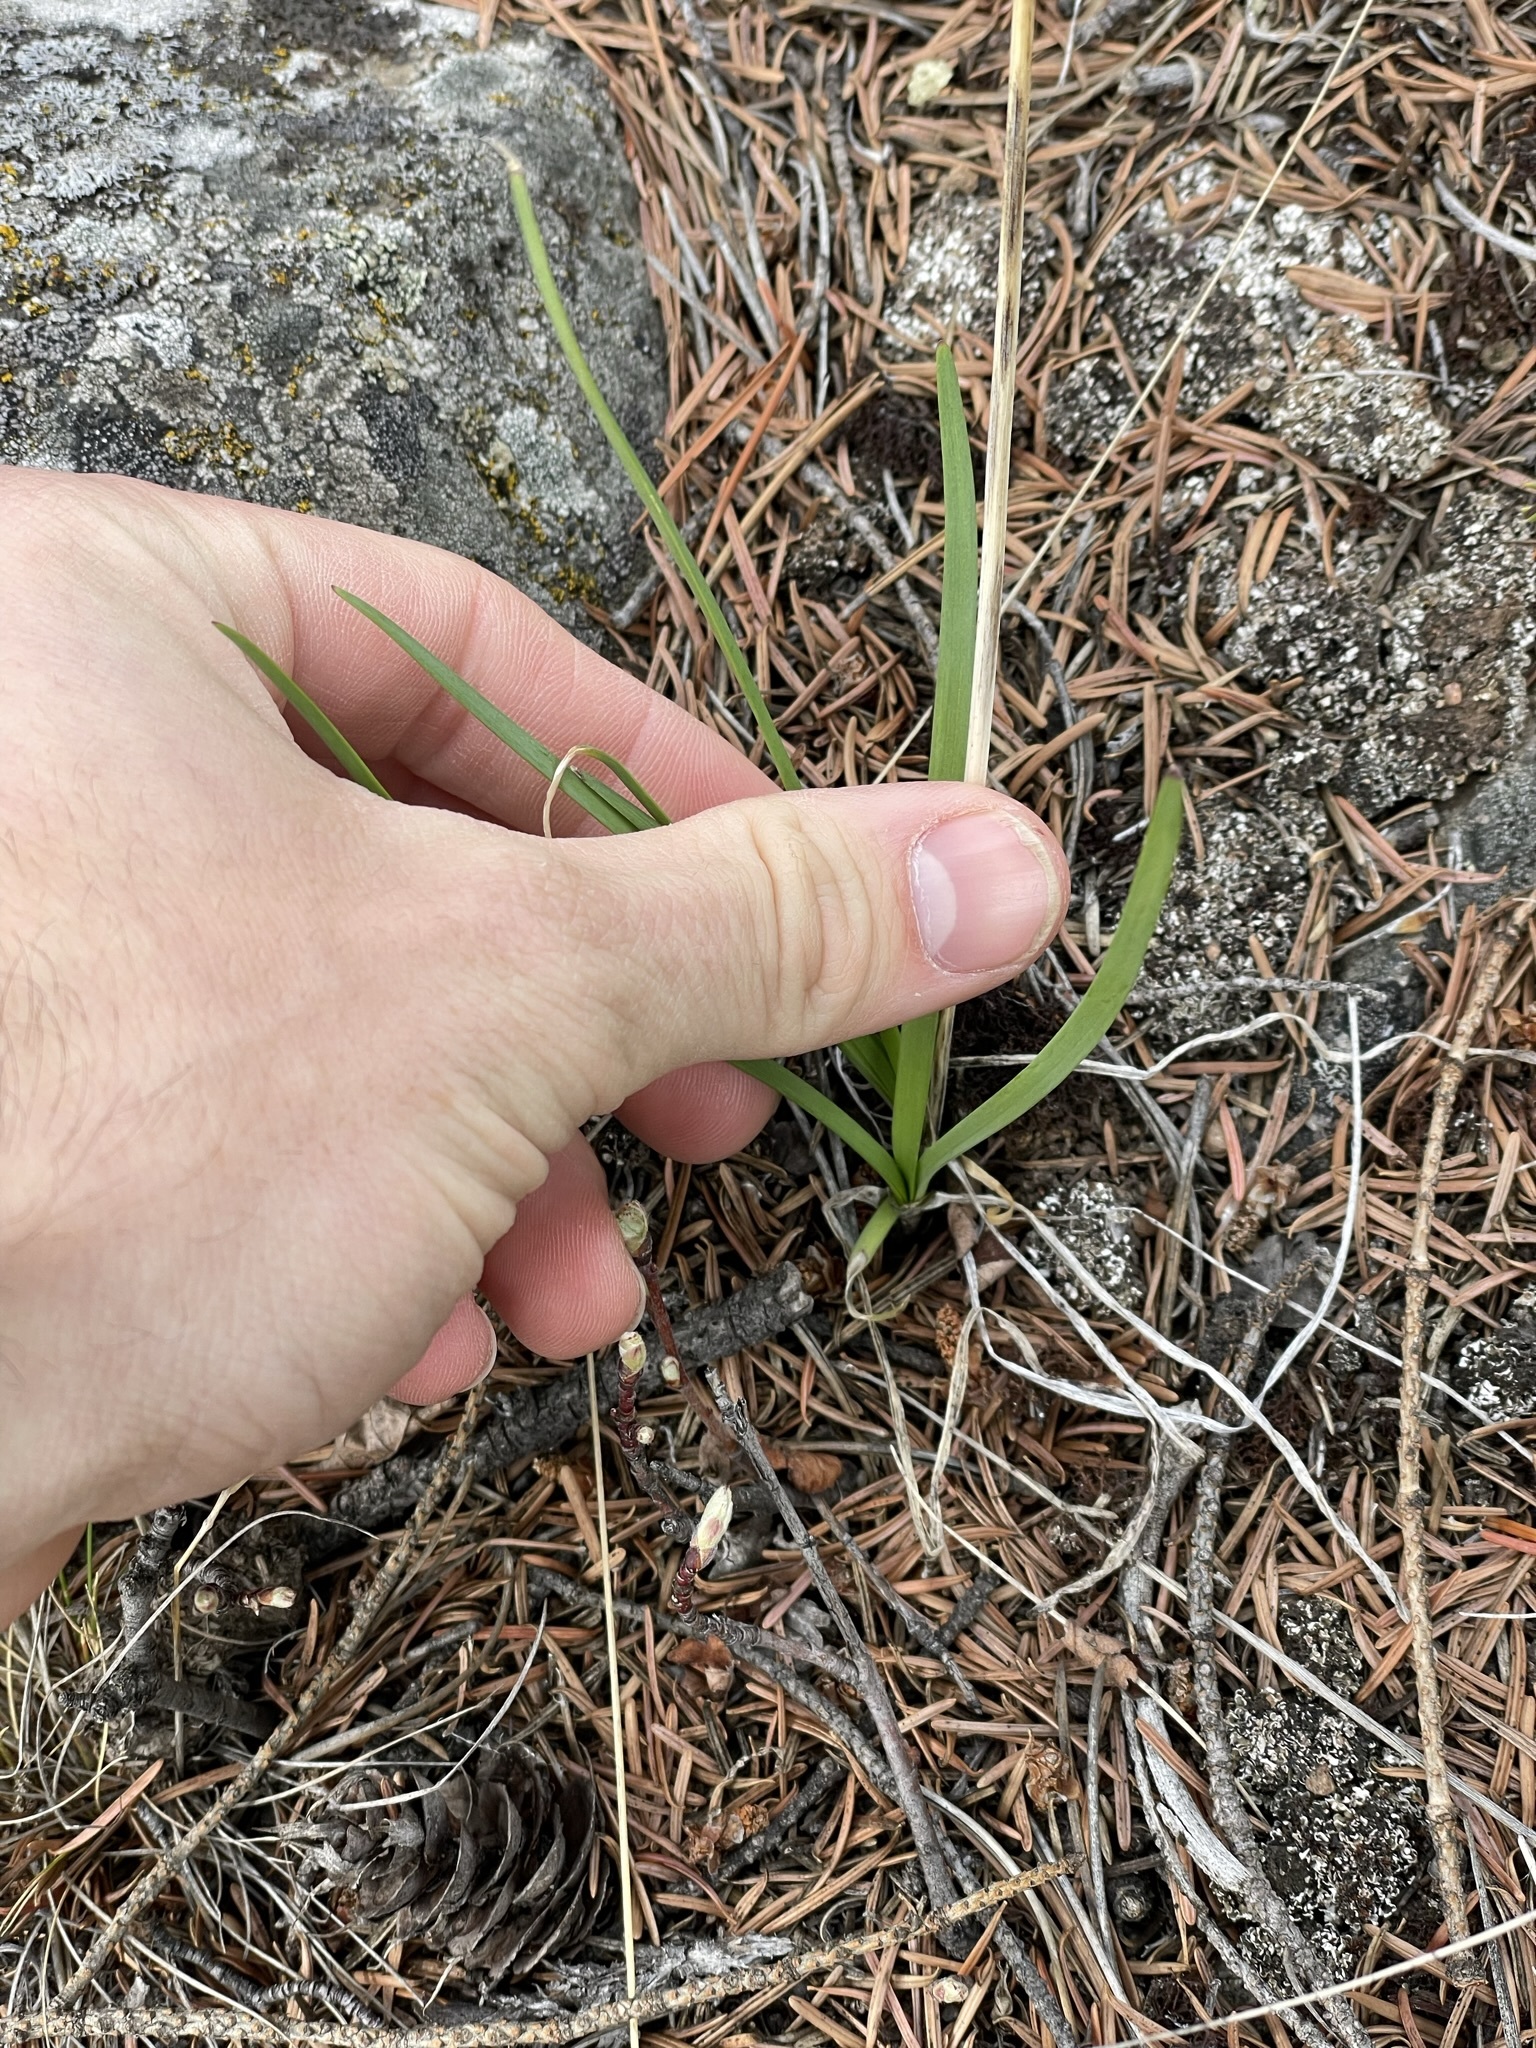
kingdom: Plantae
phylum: Tracheophyta
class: Liliopsida
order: Asparagales
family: Amaryllidaceae
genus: Allium
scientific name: Allium cernuum
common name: Nodding onion
